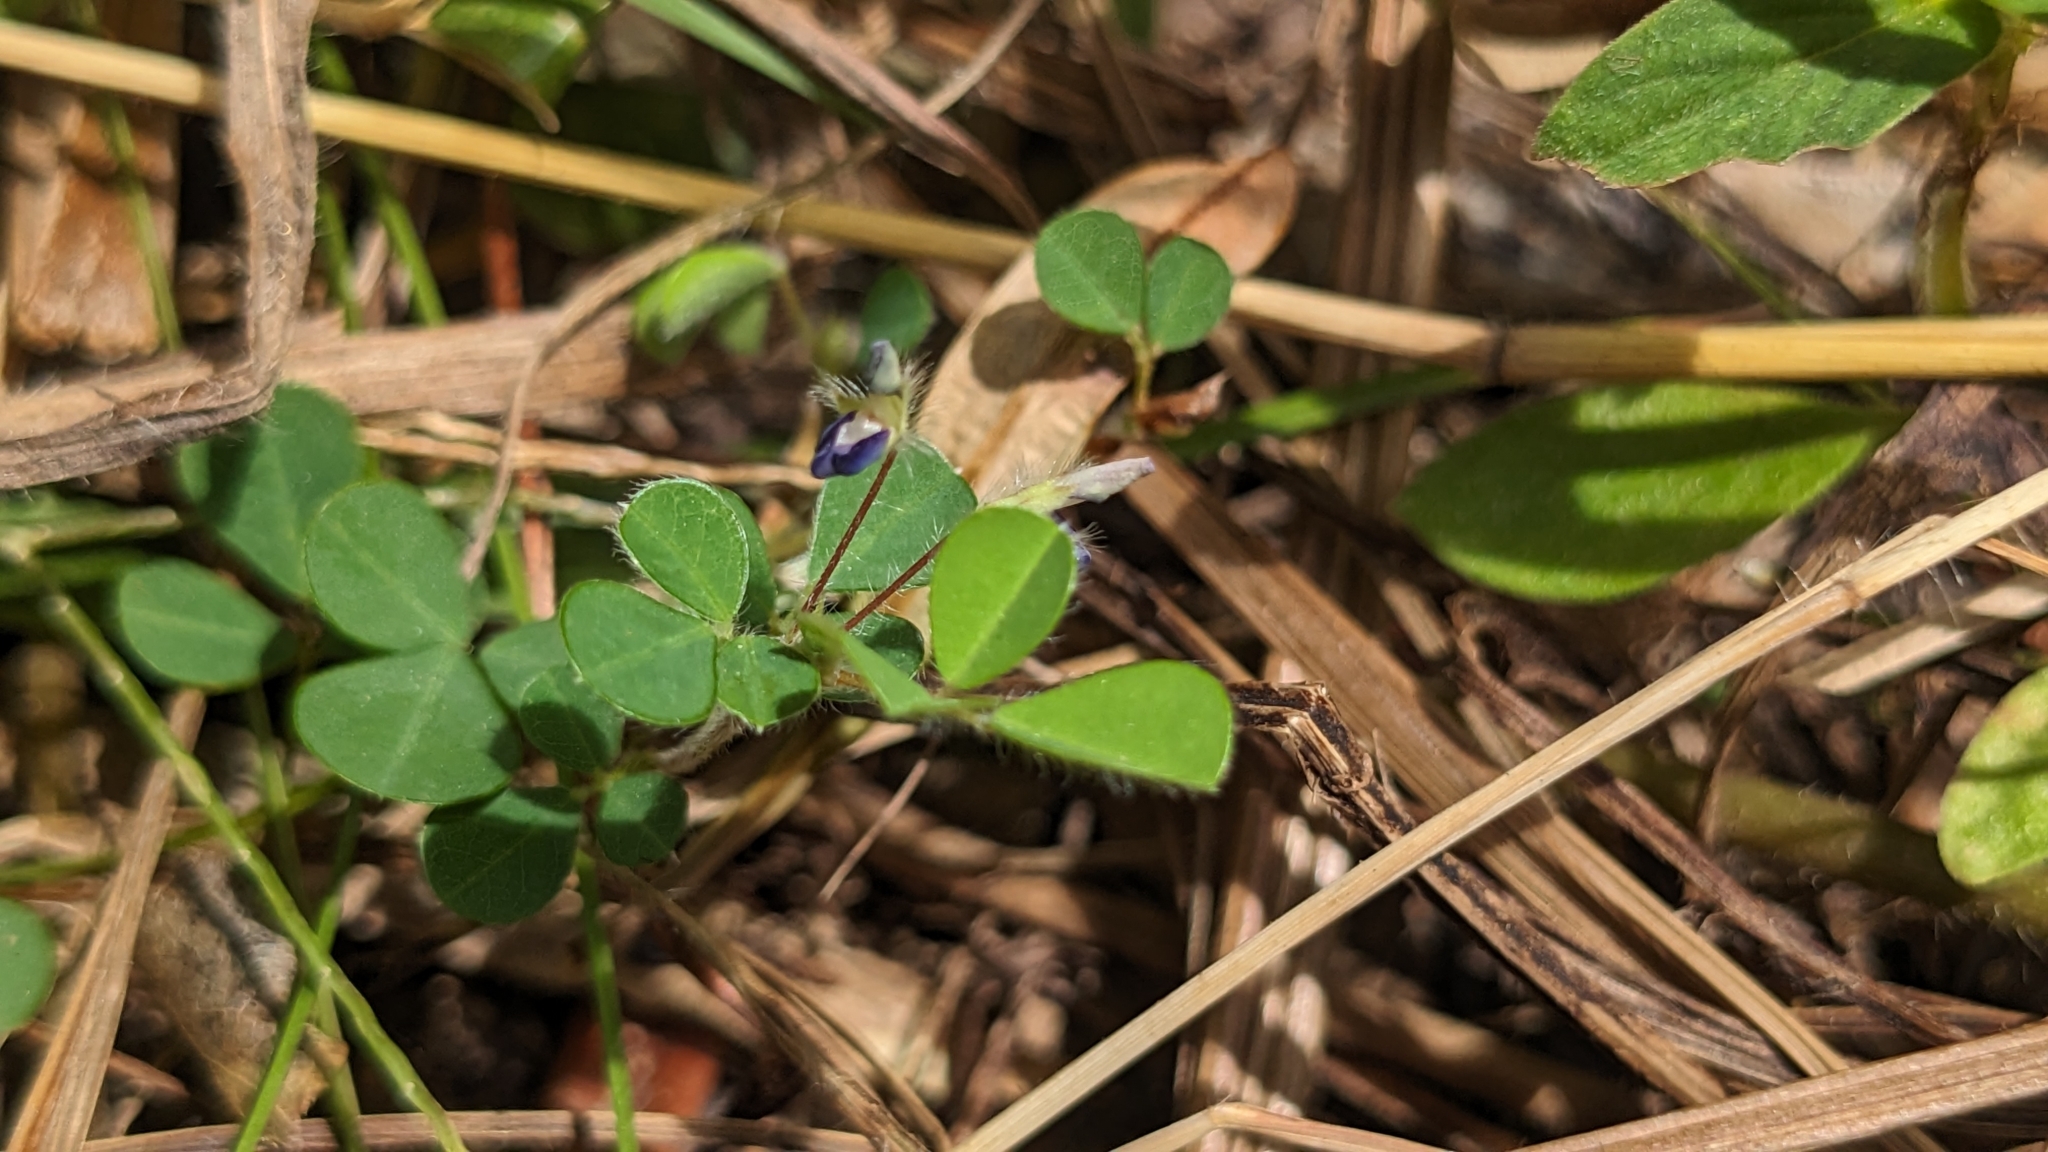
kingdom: Plantae
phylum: Tracheophyta
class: Magnoliopsida
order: Fabales
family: Fabaceae
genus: Grona
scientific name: Grona triflora
